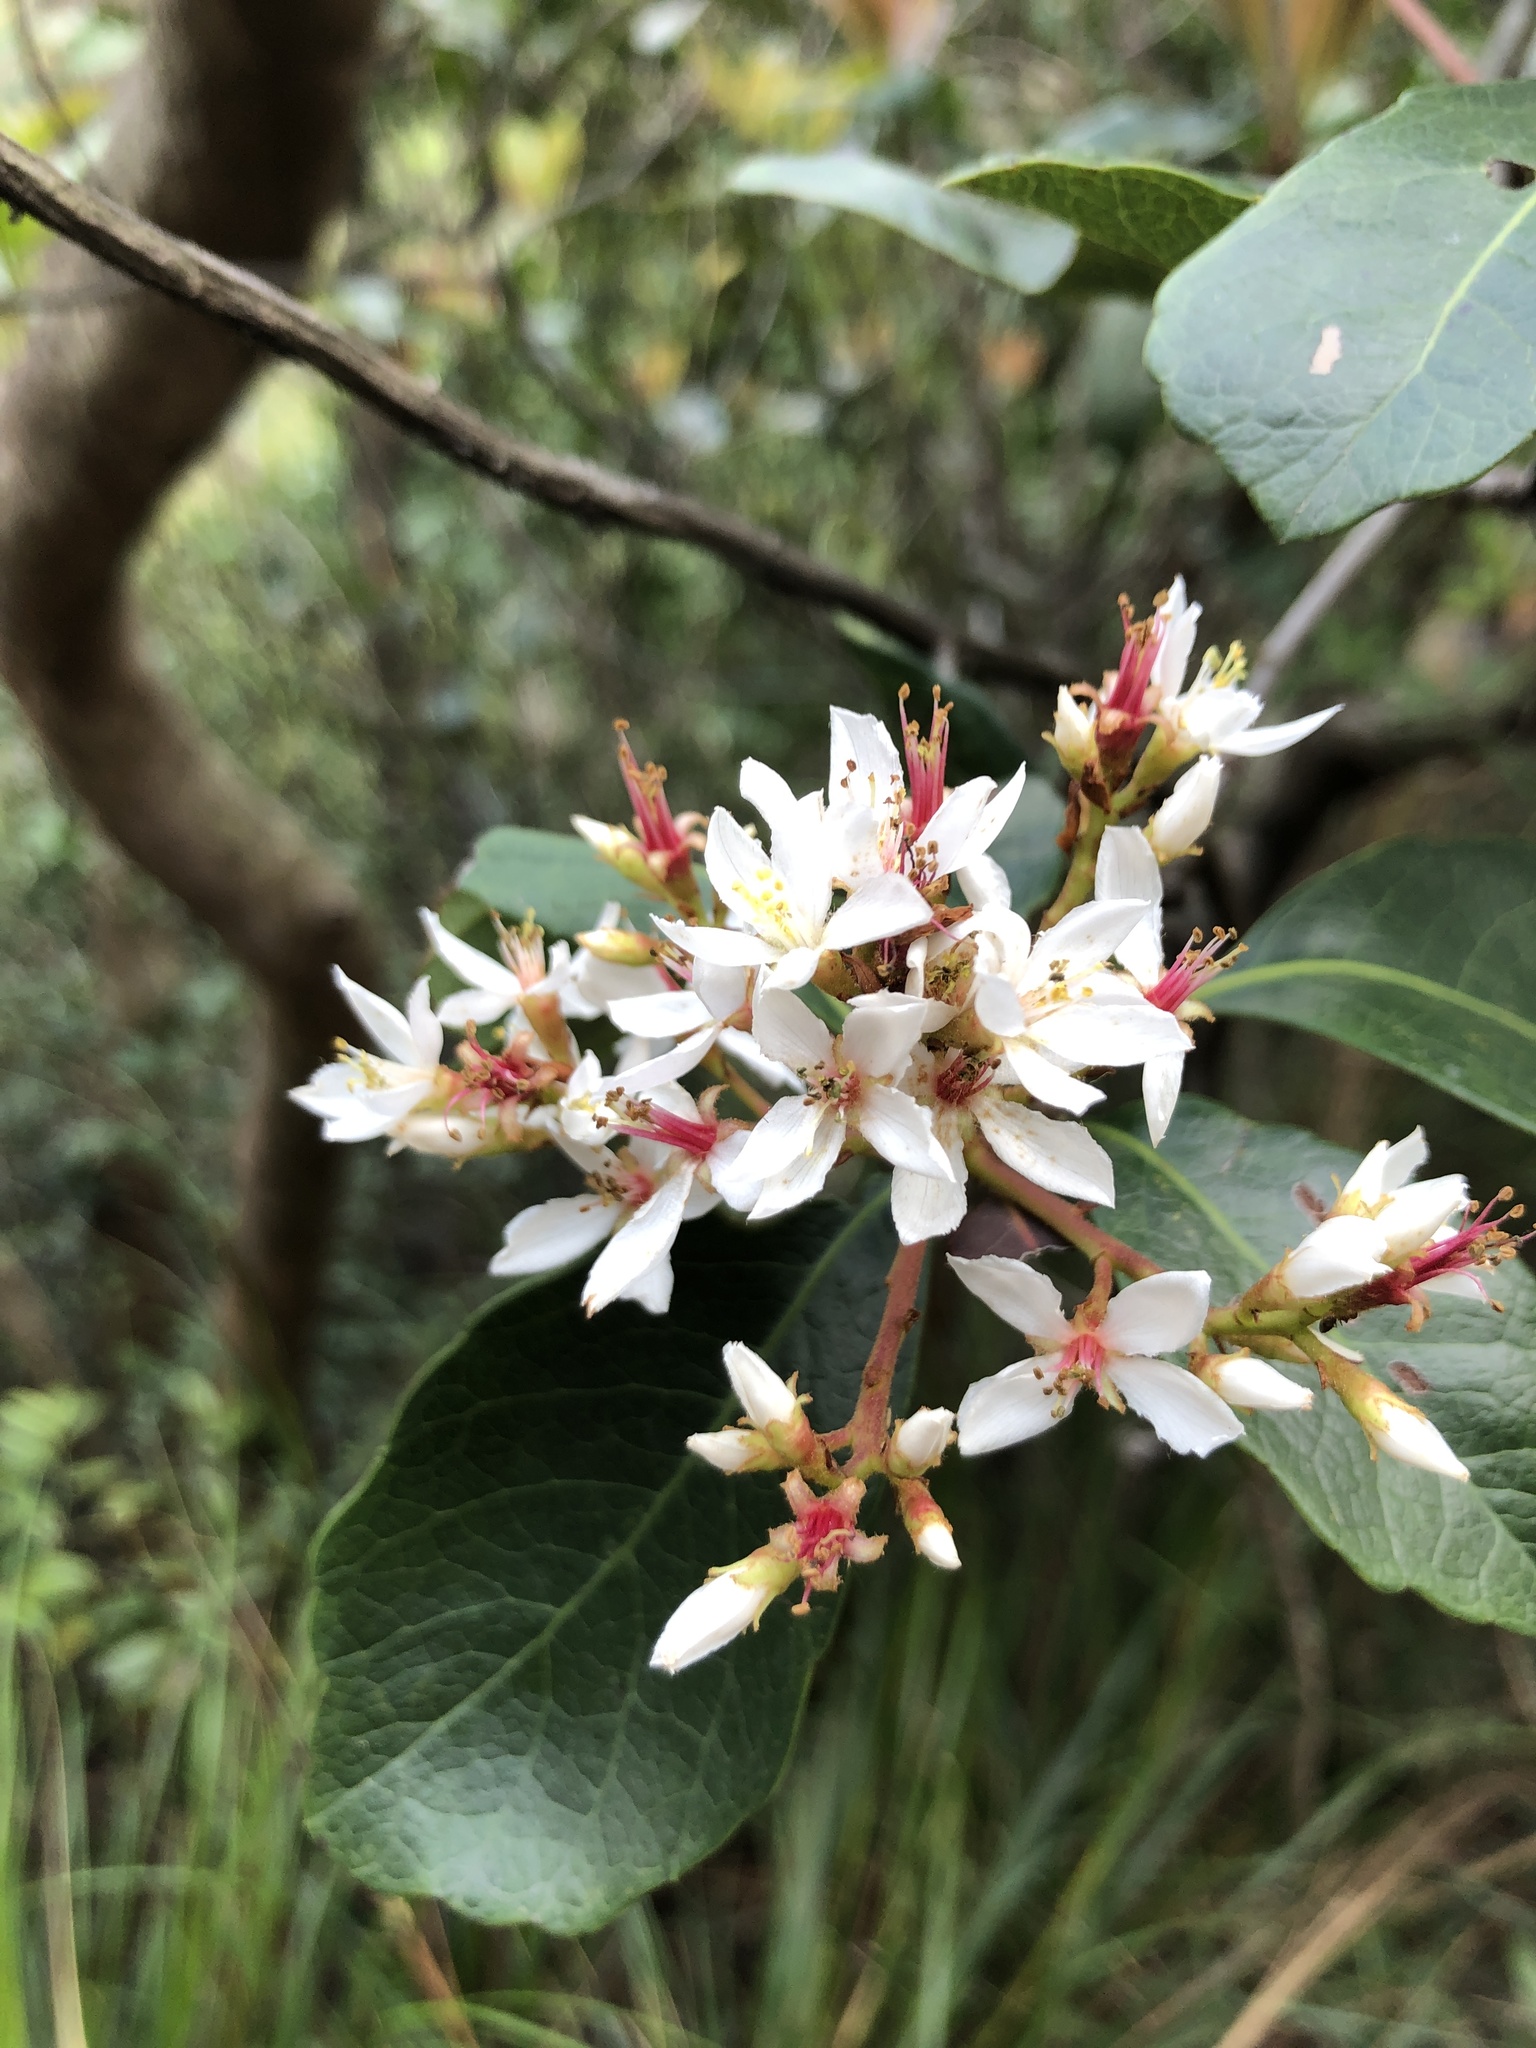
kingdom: Plantae
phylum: Tracheophyta
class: Magnoliopsida
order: Rosales
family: Rosaceae
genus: Rhaphiolepis
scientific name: Rhaphiolepis indica
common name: India-hawthorn
